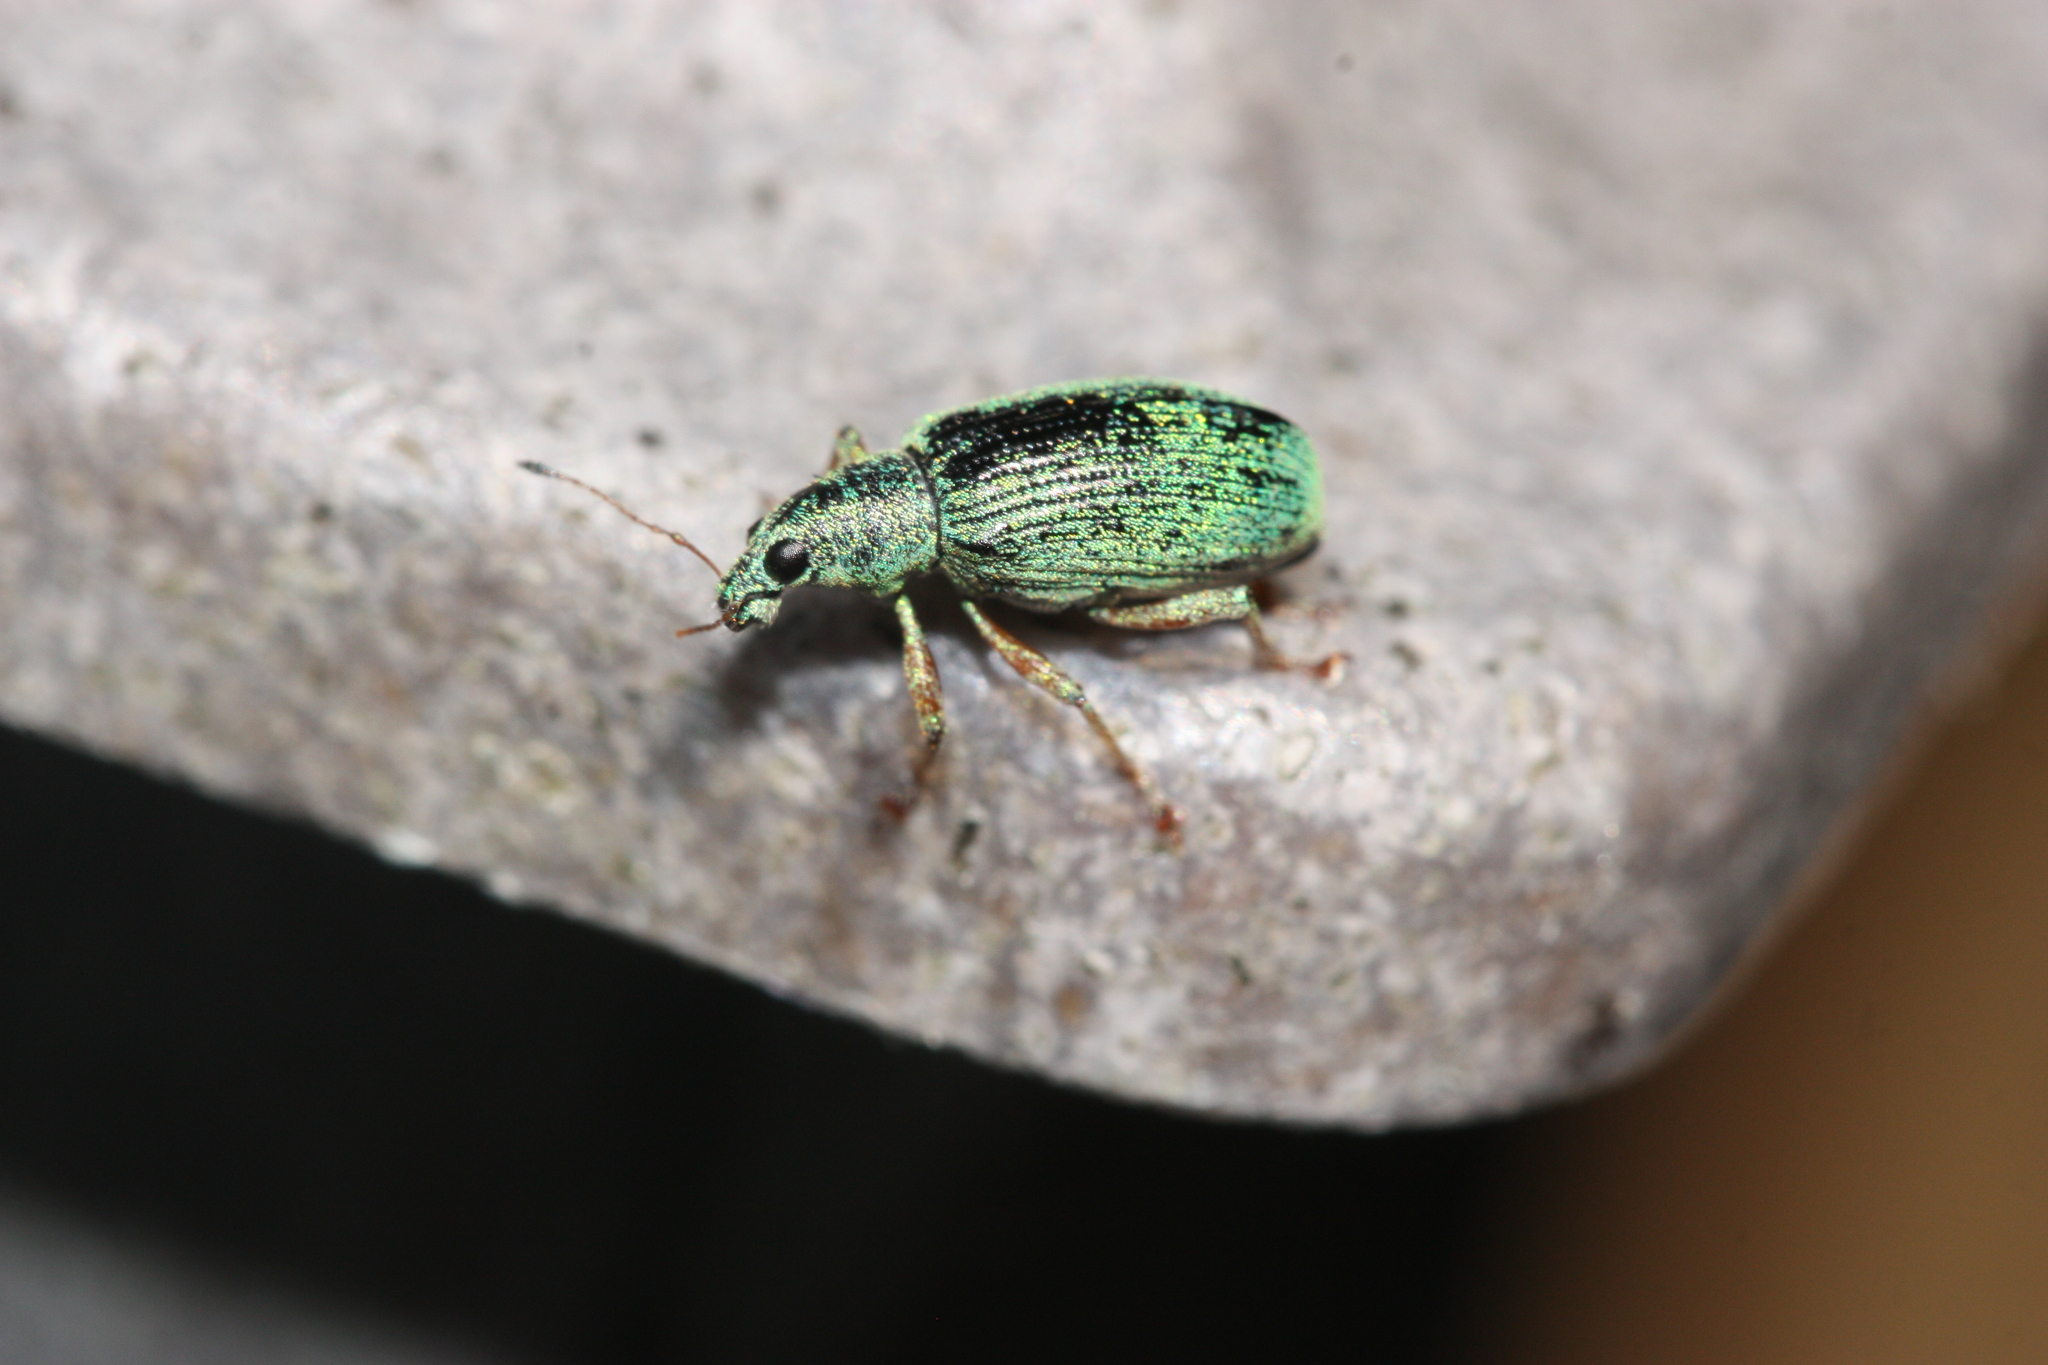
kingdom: Animalia
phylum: Arthropoda
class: Insecta
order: Coleoptera
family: Curculionidae
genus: Polydrusus
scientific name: Polydrusus formosus
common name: Weevil
